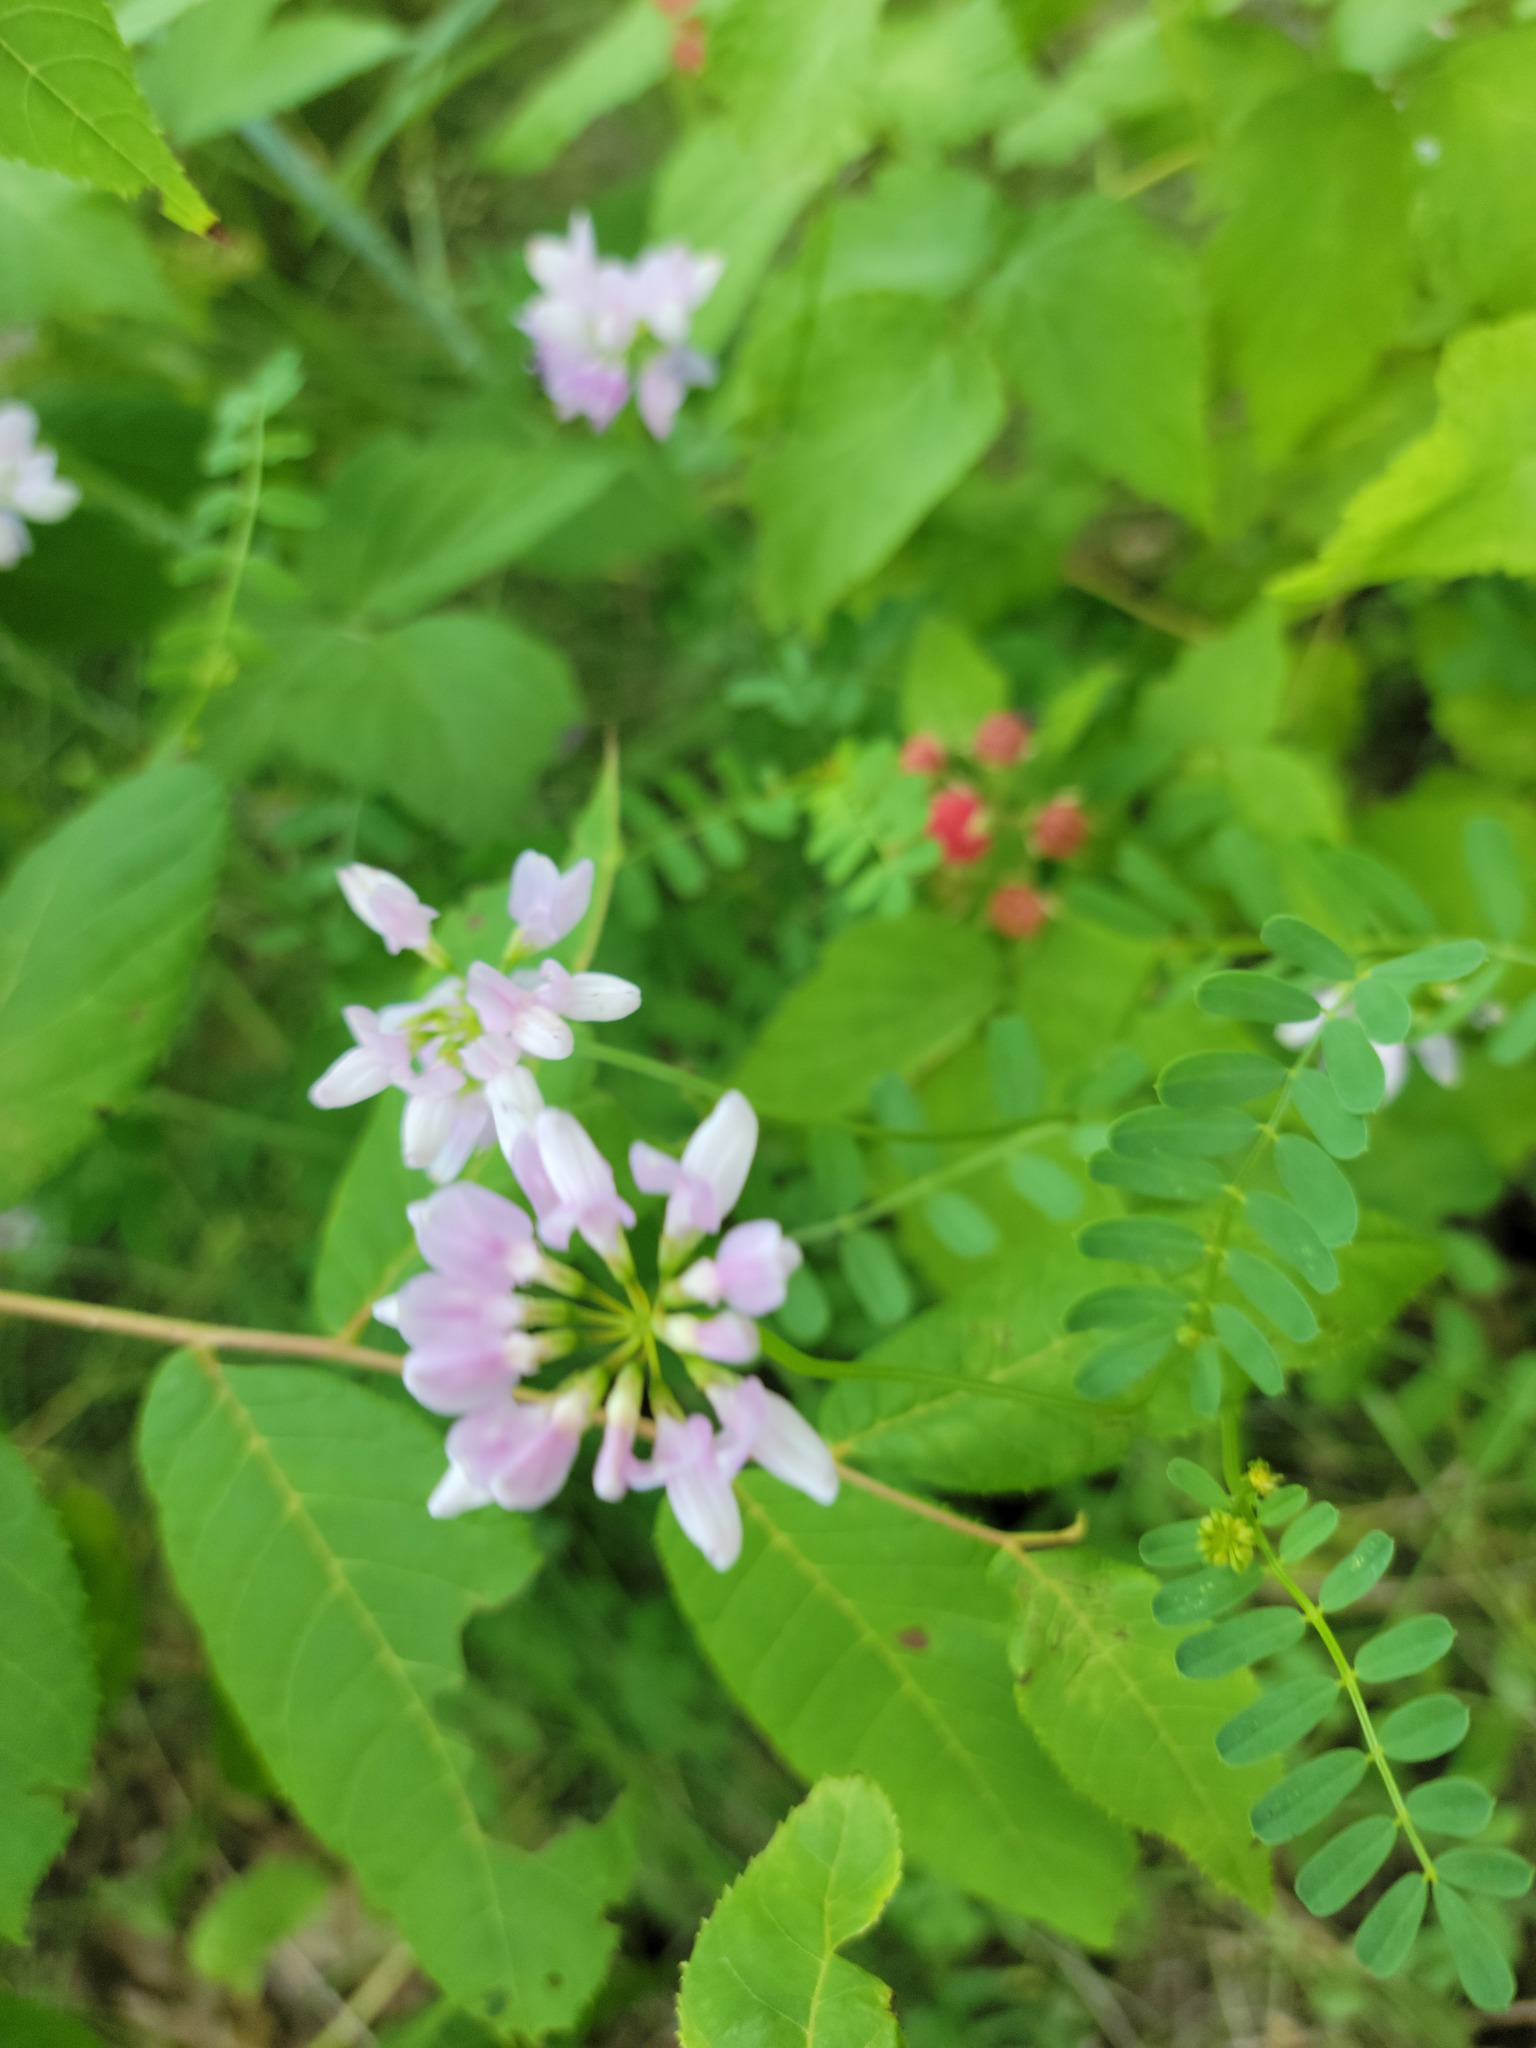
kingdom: Plantae
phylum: Tracheophyta
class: Magnoliopsida
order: Fabales
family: Fabaceae
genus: Coronilla
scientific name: Coronilla varia
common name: Crownvetch
